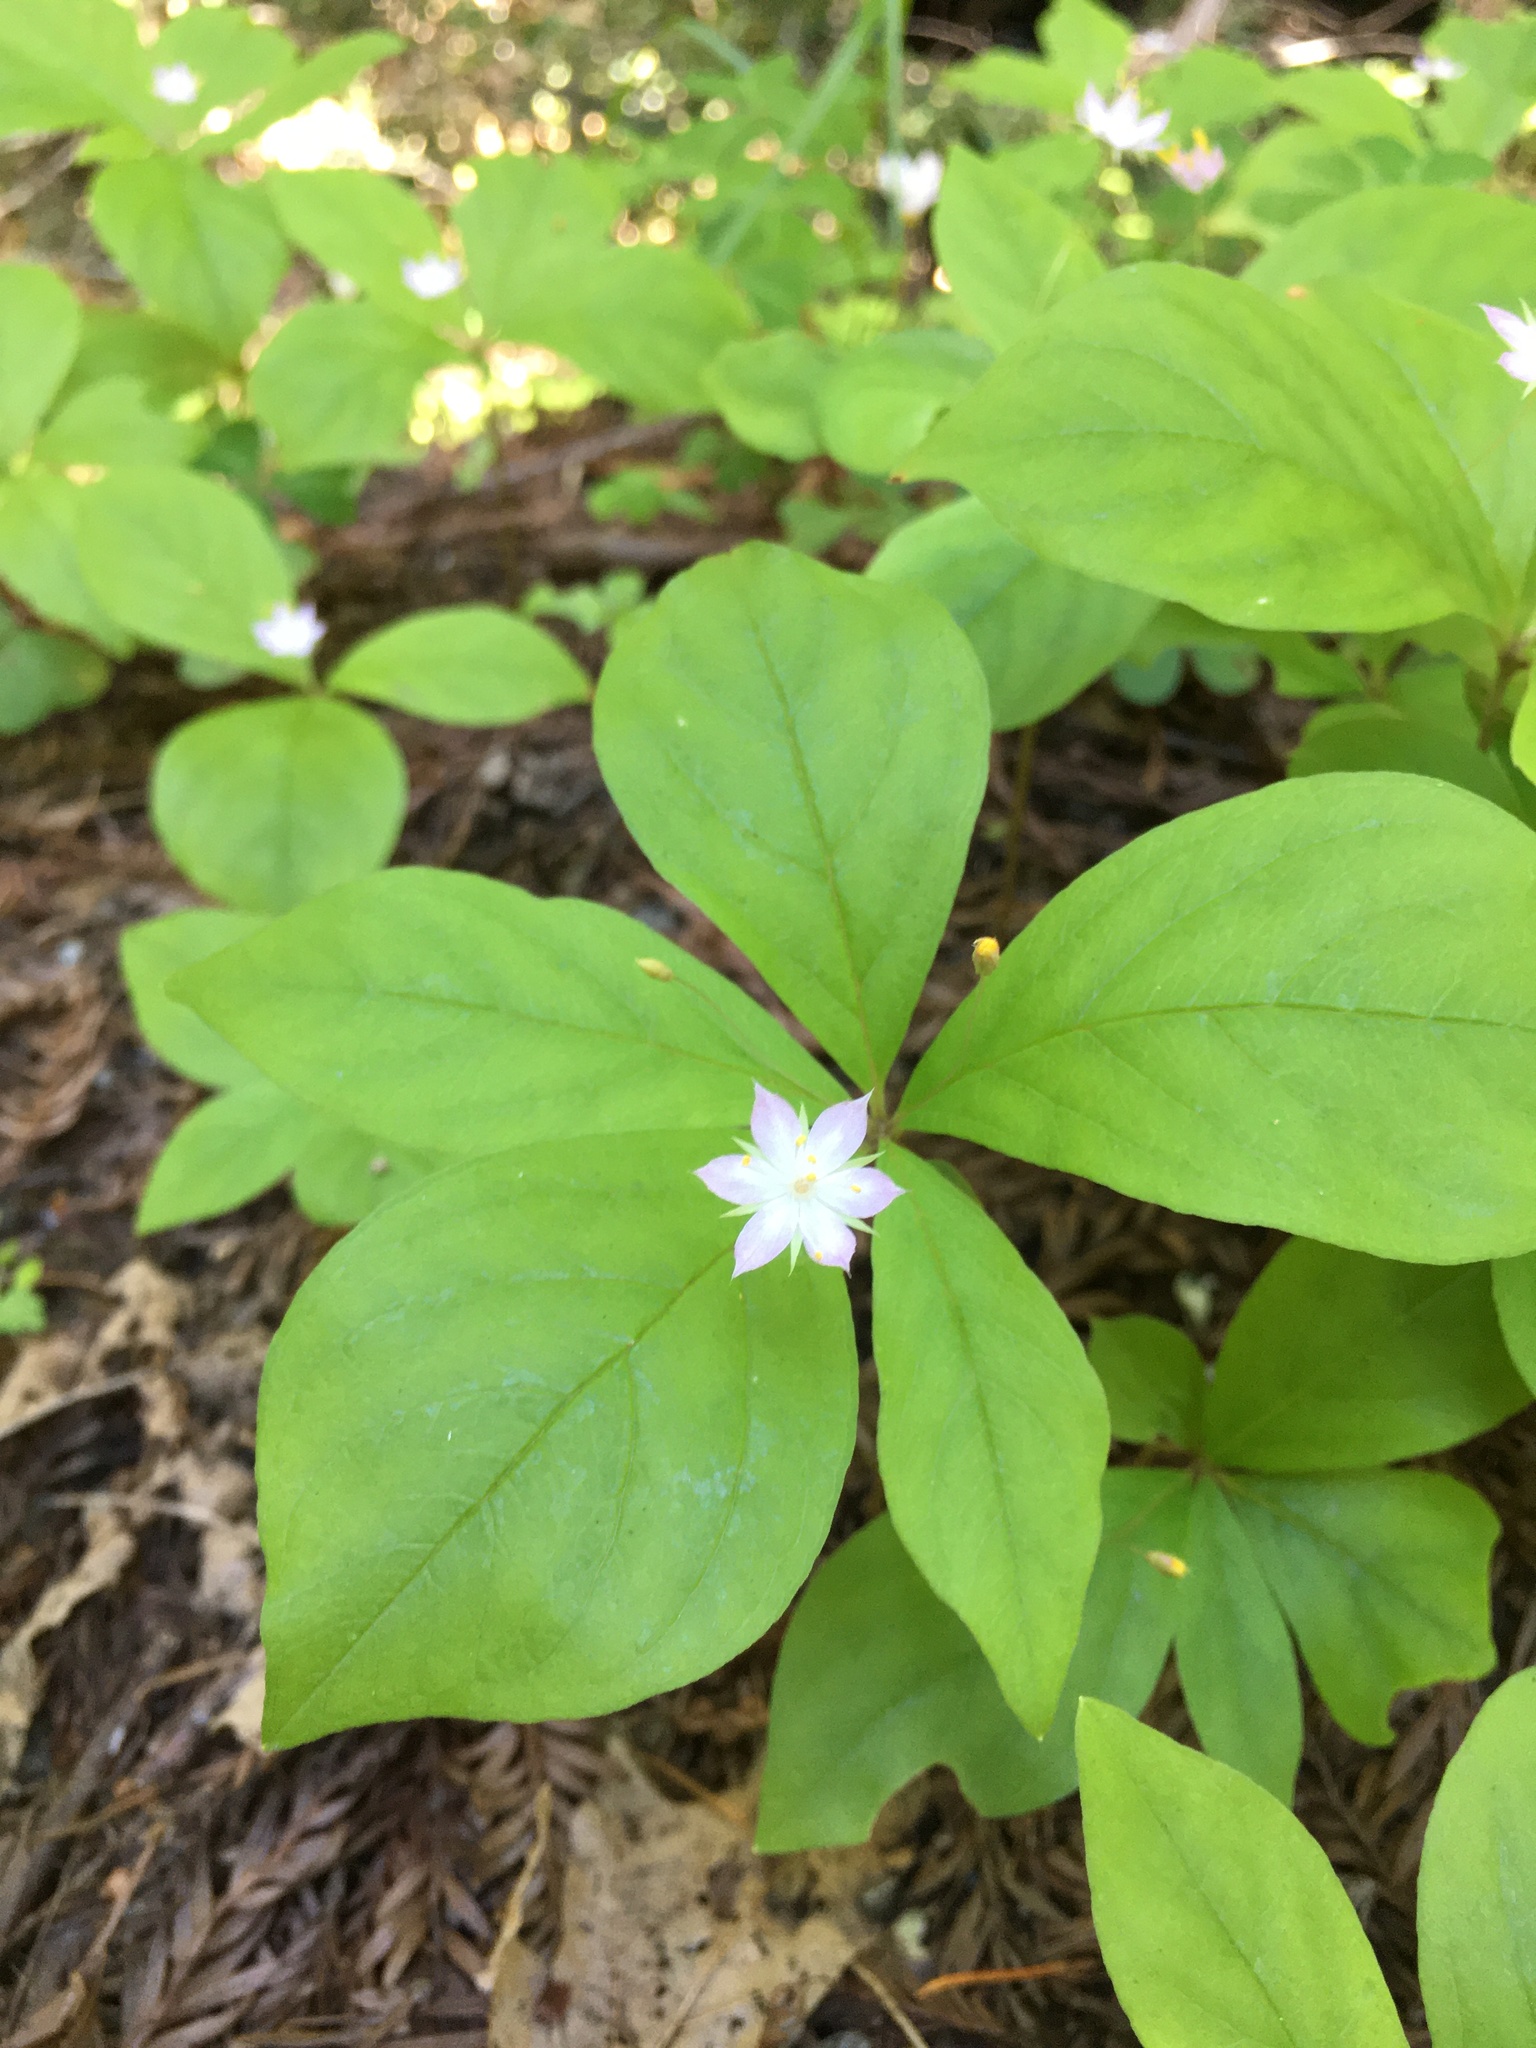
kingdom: Plantae
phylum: Tracheophyta
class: Magnoliopsida
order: Ericales
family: Primulaceae
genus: Lysimachia
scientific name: Lysimachia latifolia
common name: Pacific starflower
